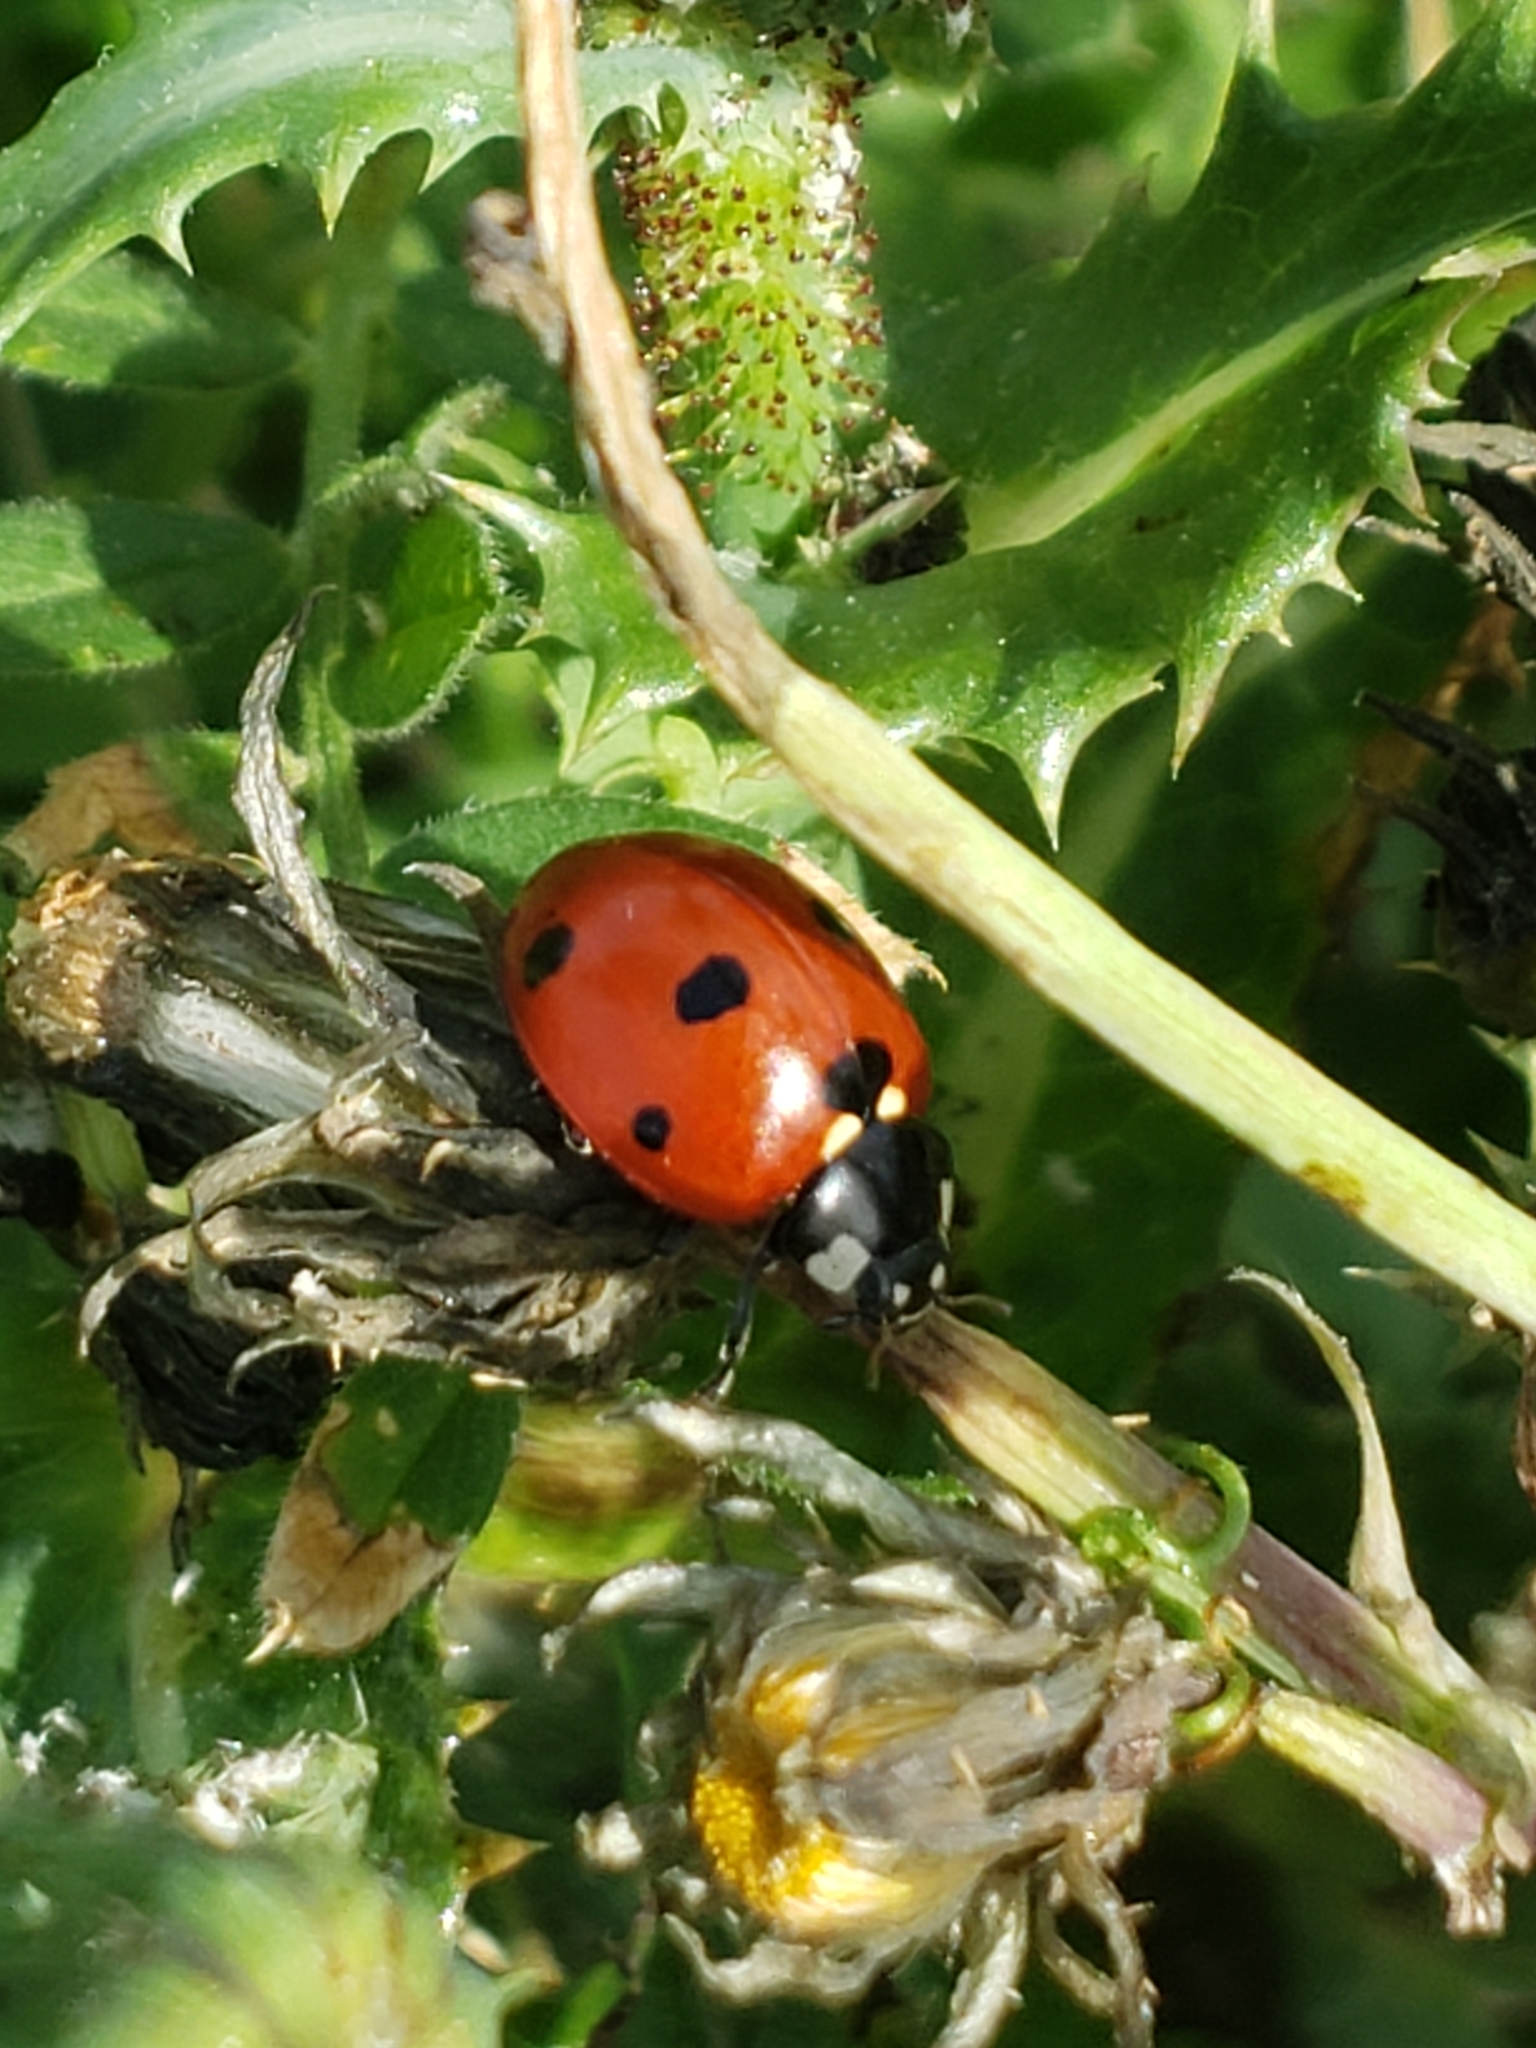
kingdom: Animalia
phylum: Arthropoda
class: Insecta
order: Coleoptera
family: Coccinellidae
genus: Coccinella
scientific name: Coccinella septempunctata
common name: Sevenspotted lady beetle
